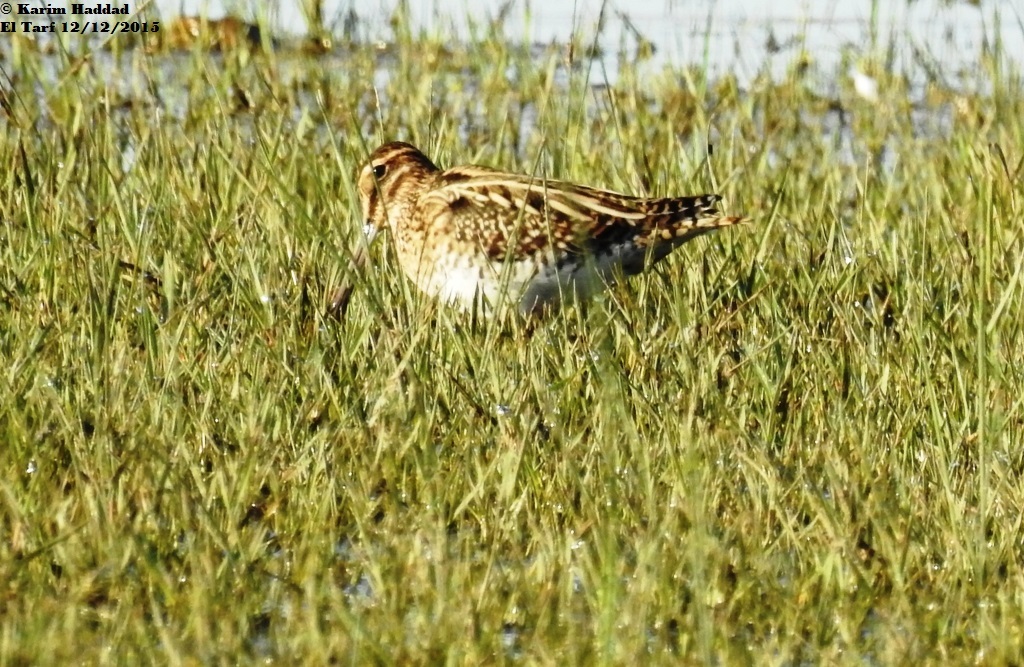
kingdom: Animalia
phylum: Chordata
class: Aves
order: Charadriiformes
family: Scolopacidae
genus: Gallinago
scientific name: Gallinago gallinago
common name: Common snipe
